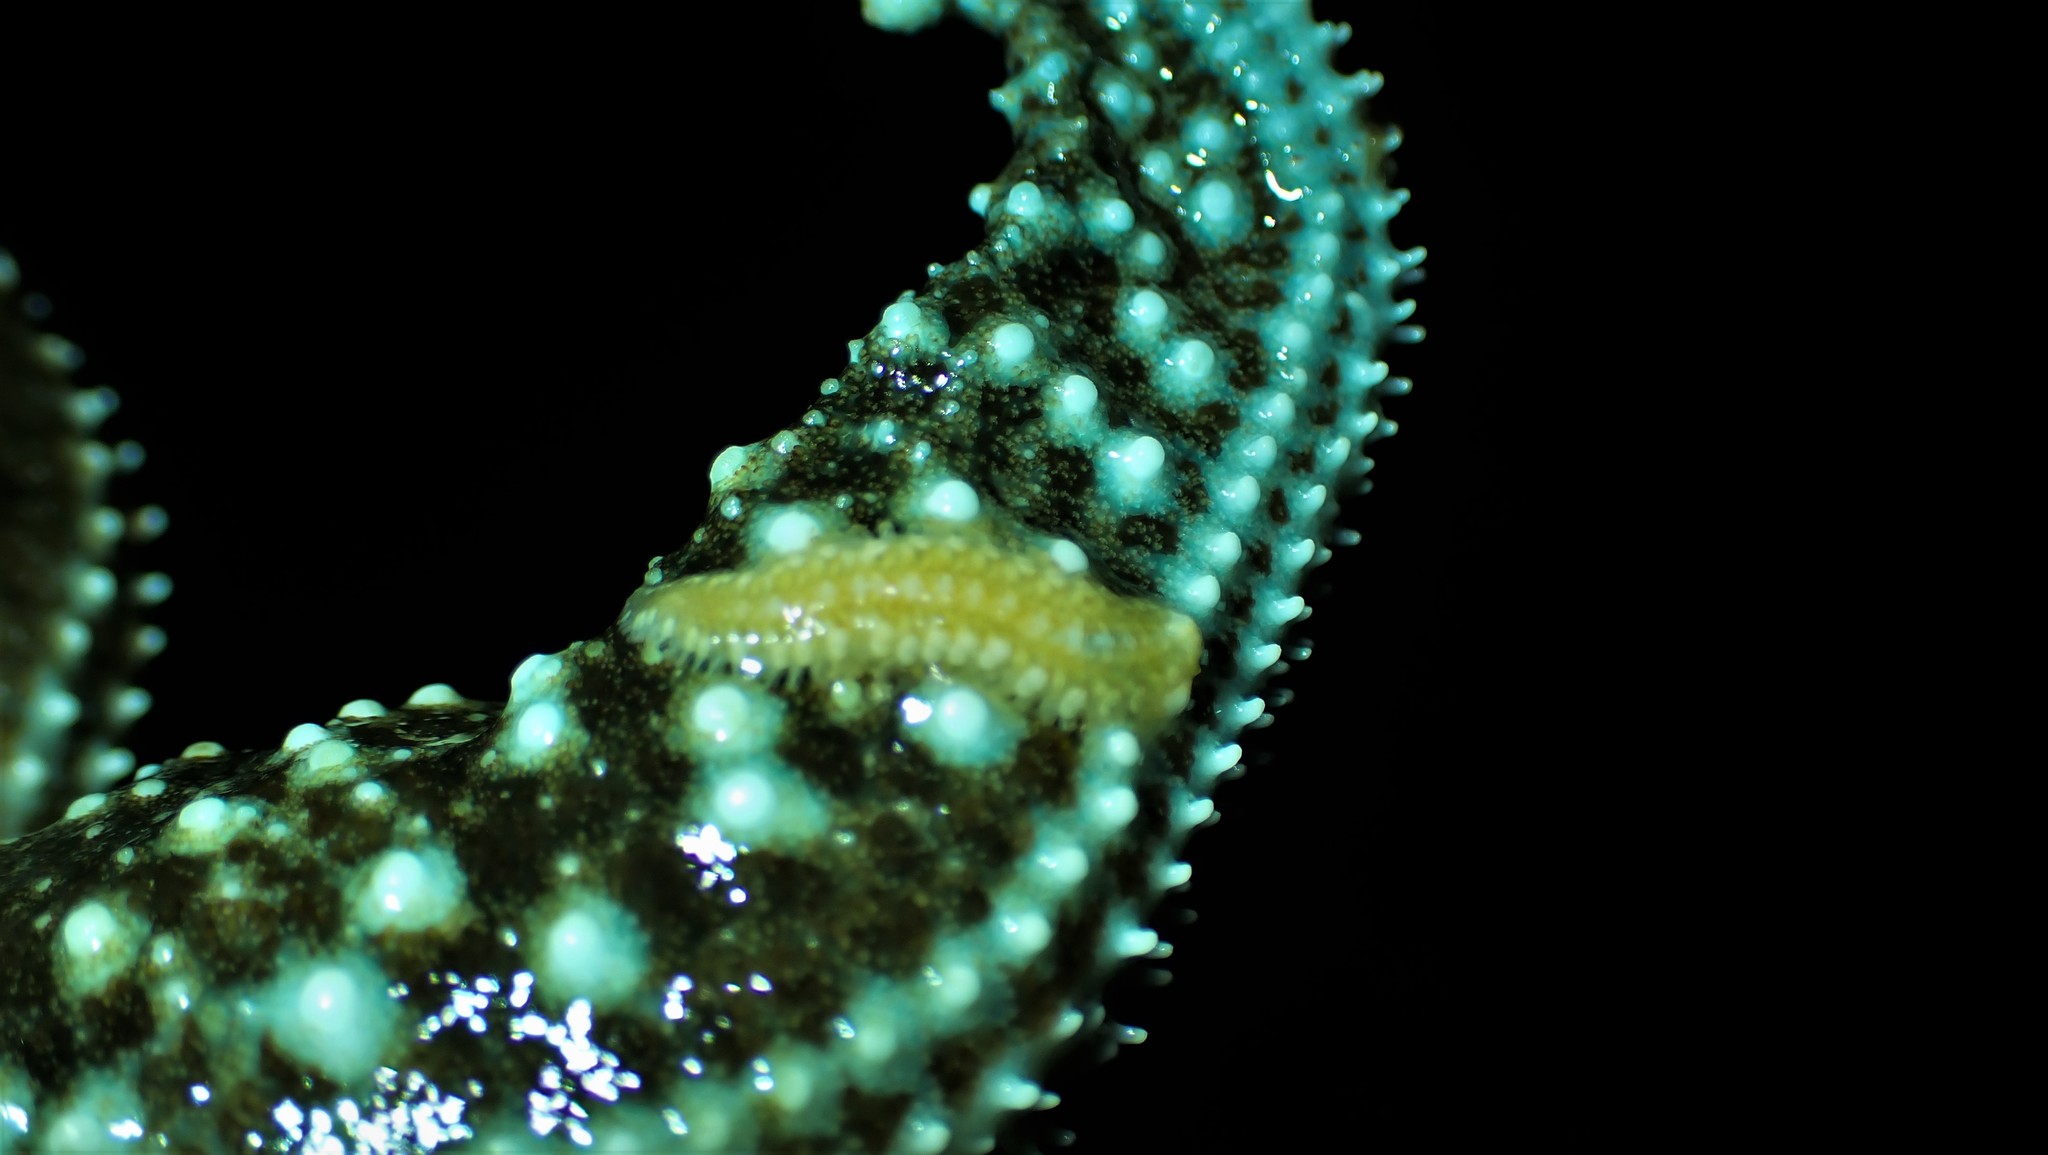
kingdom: Animalia
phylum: Annelida
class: Polychaeta
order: Phyllodocida
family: Polynoidae
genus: Arctonoe
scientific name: Arctonoe fragilis
